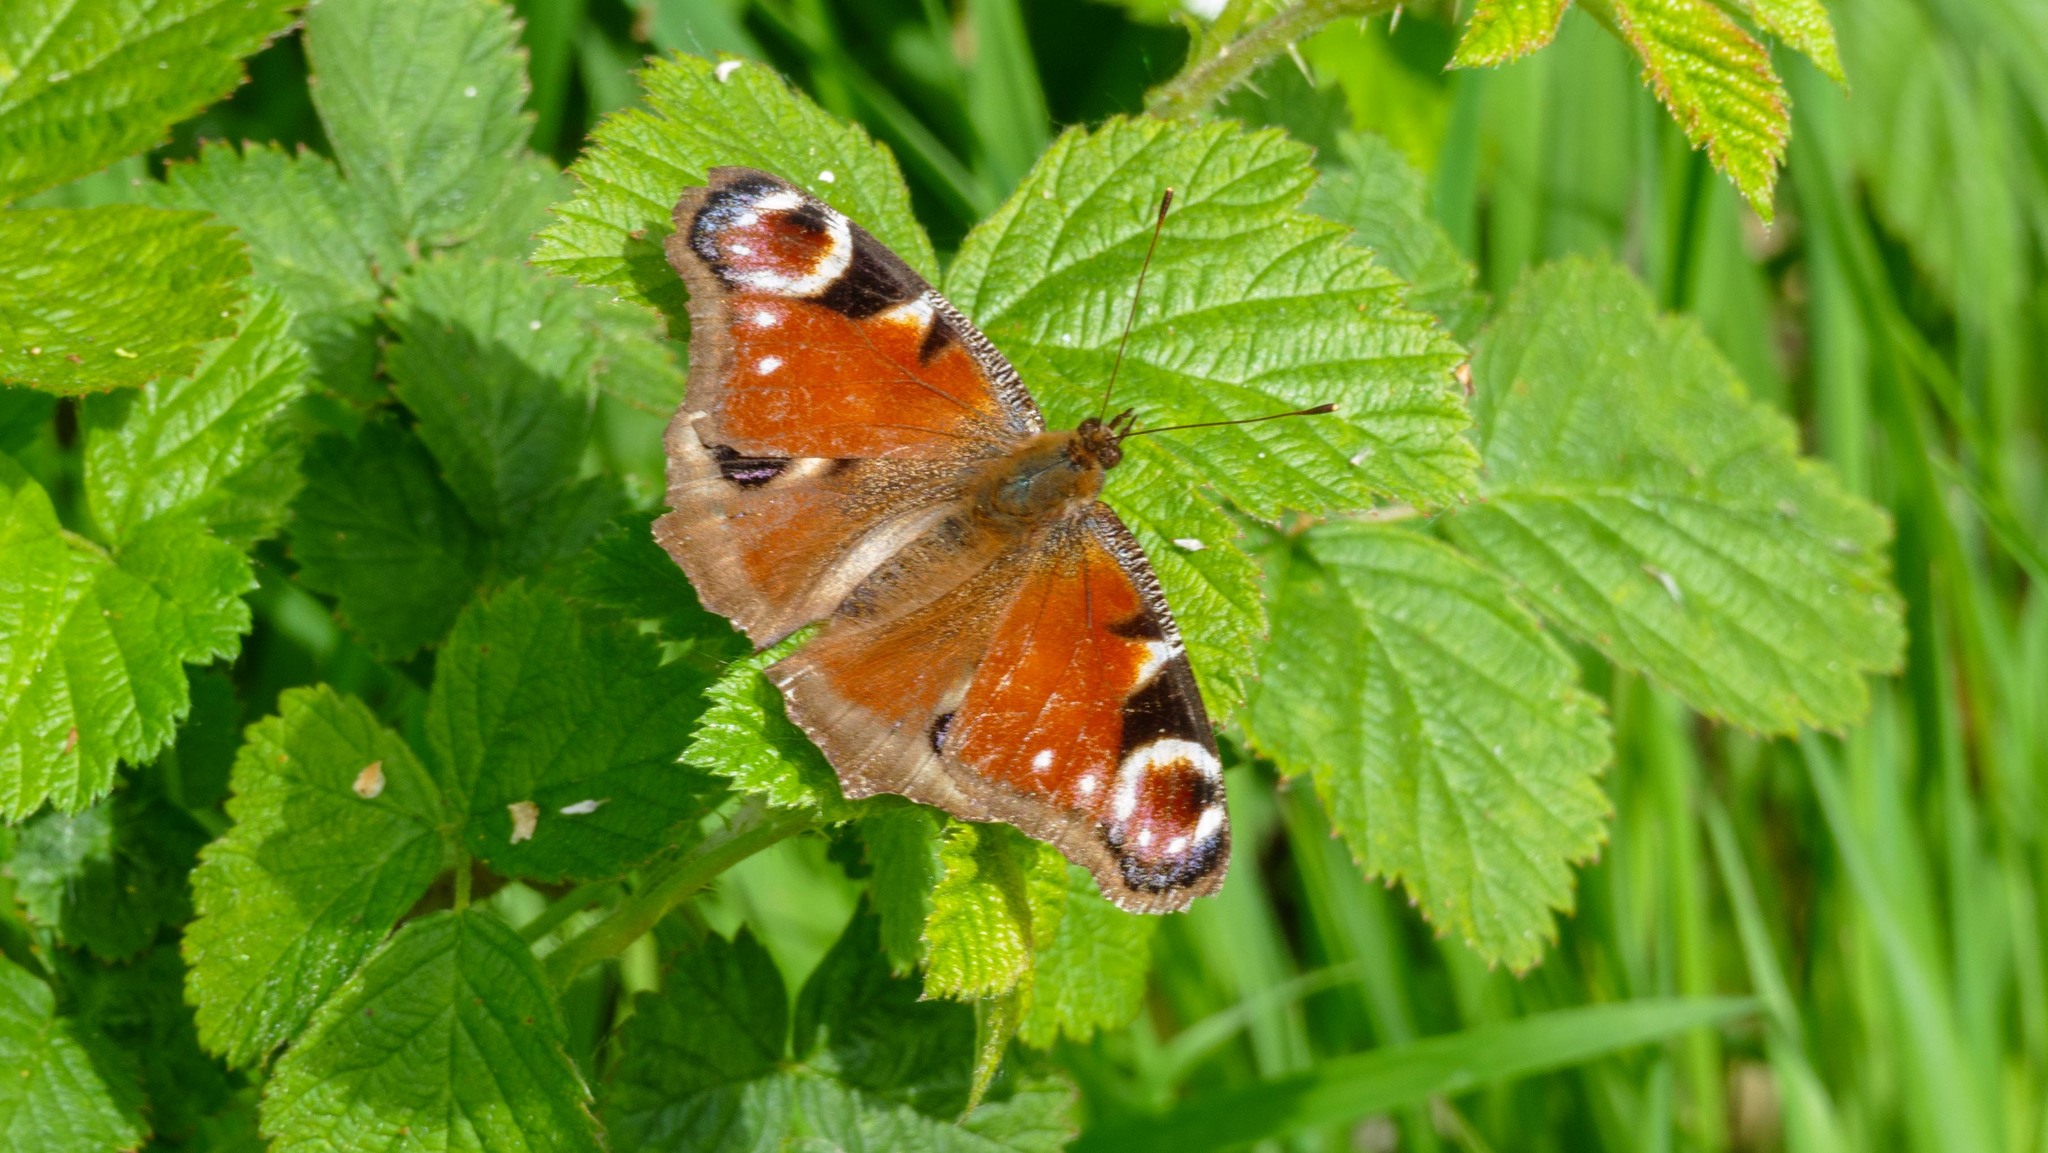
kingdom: Animalia
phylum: Arthropoda
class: Insecta
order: Lepidoptera
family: Nymphalidae
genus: Aglais
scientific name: Aglais io
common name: Peacock
